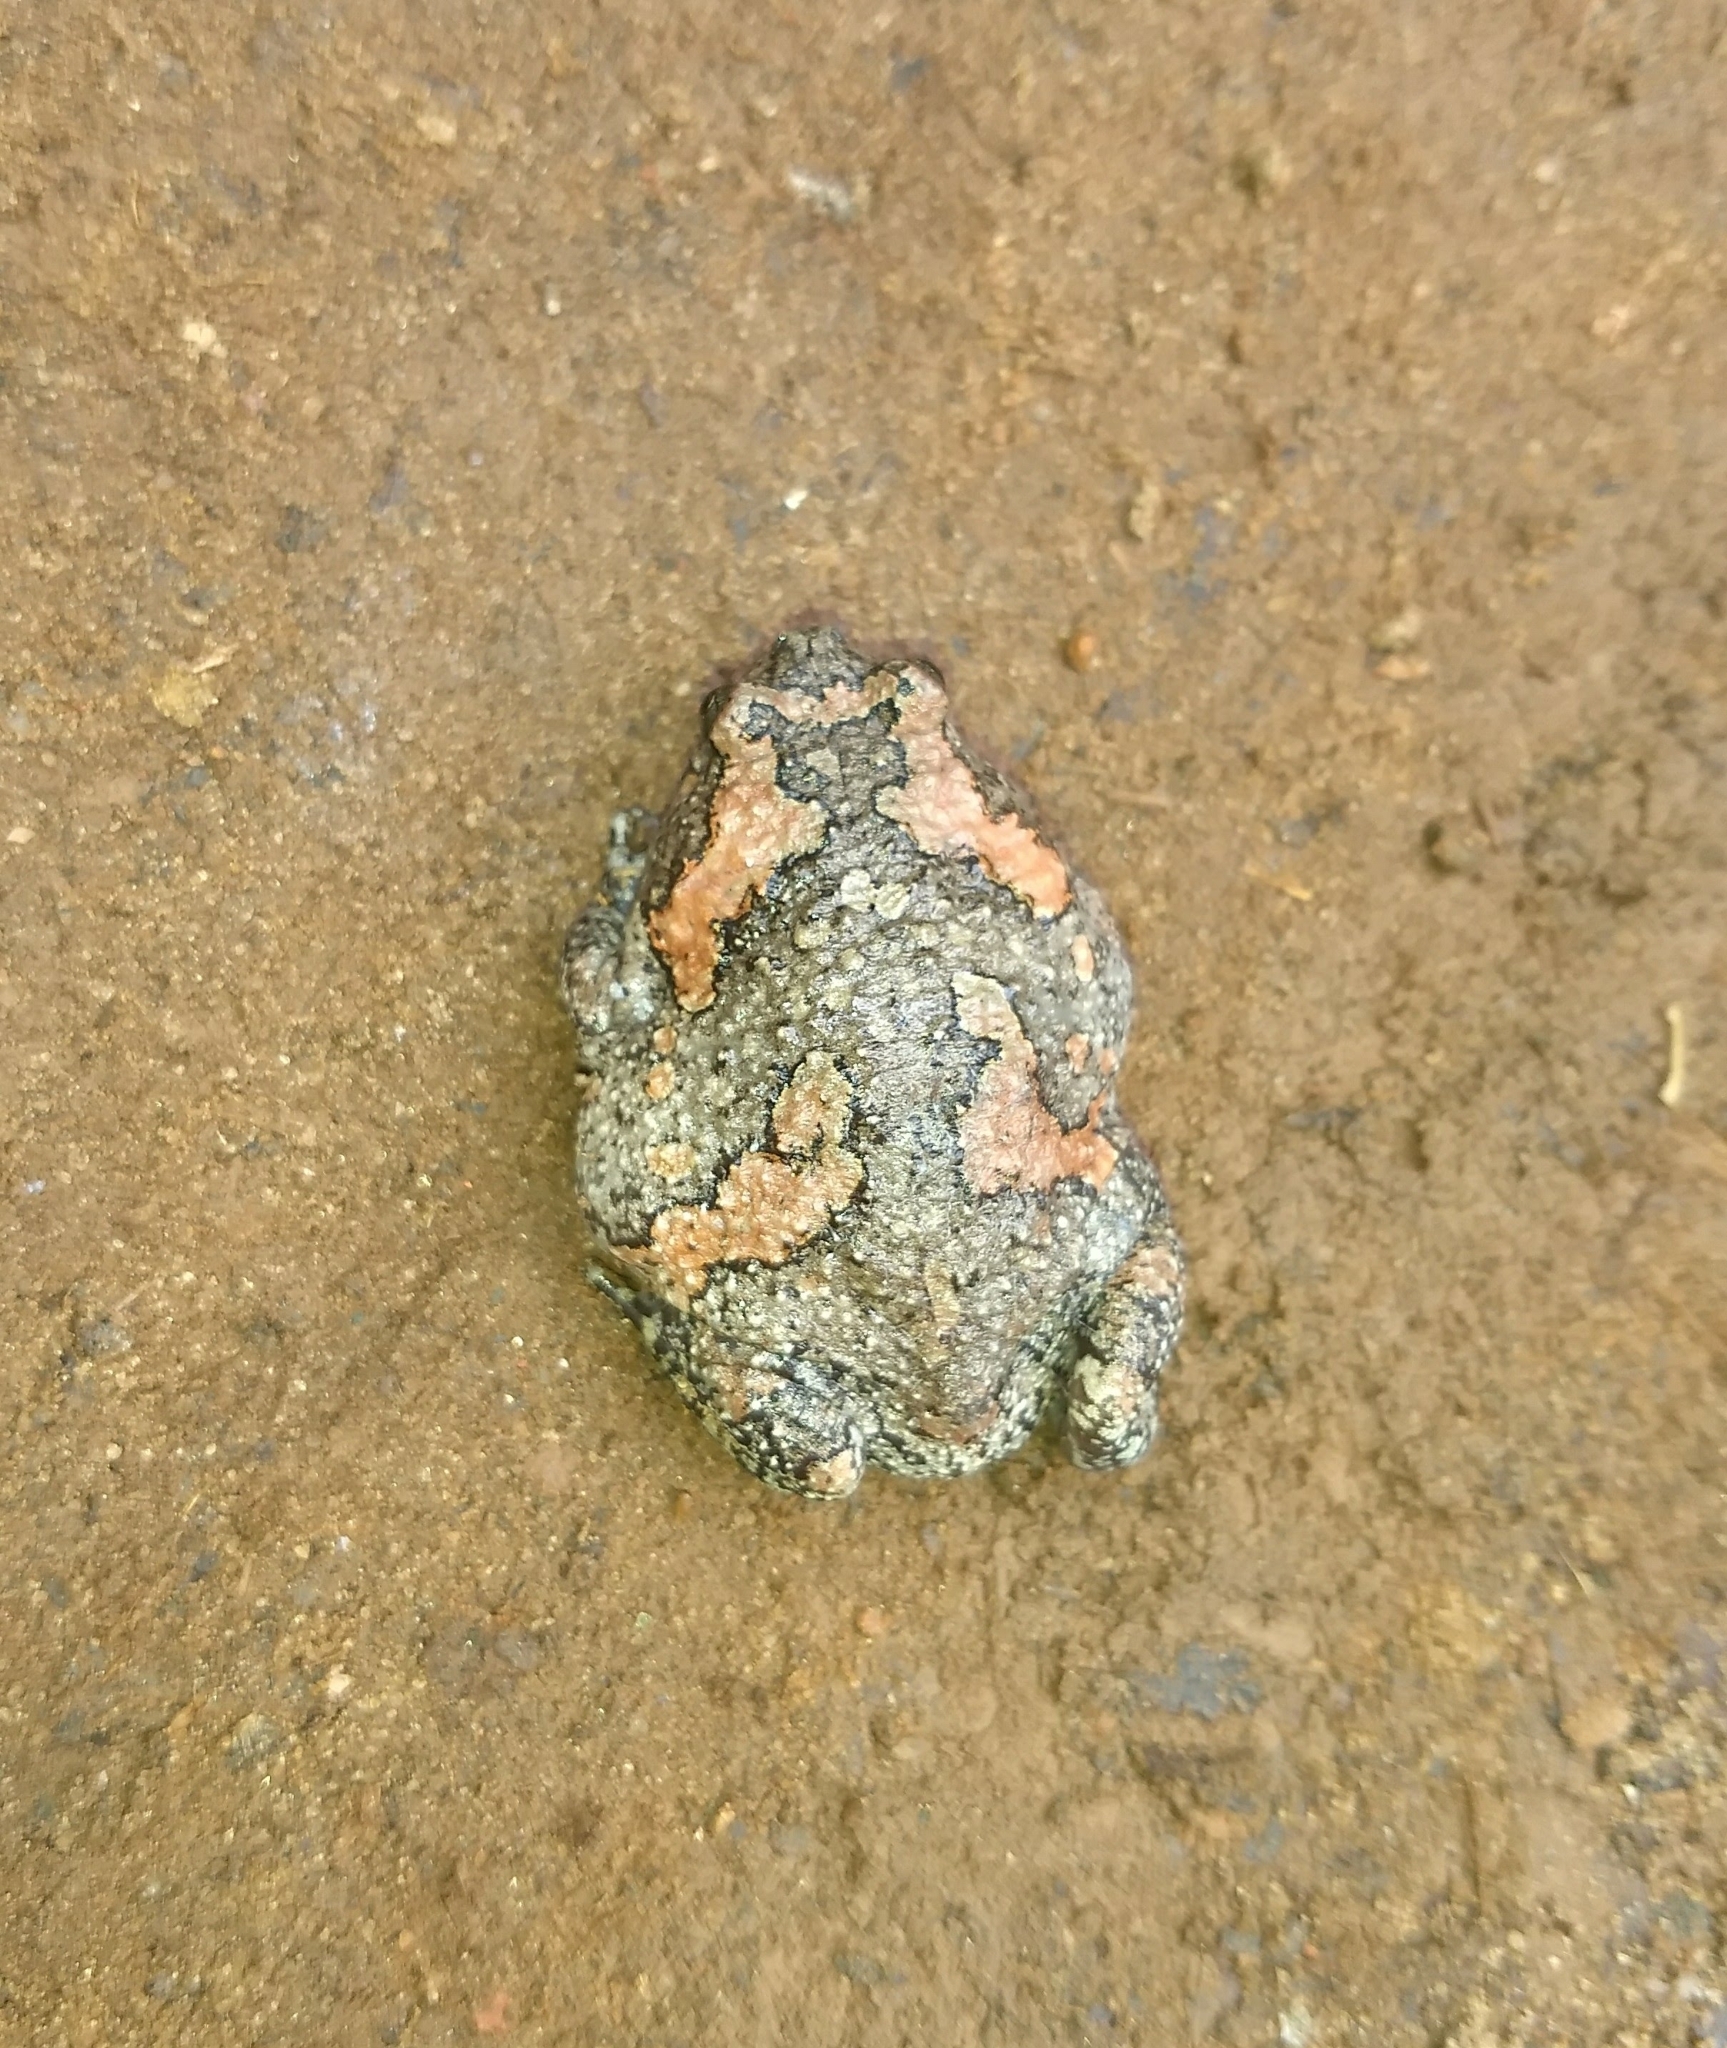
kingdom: Animalia
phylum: Chordata
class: Amphibia
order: Anura
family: Microhylidae
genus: Uperodon
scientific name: Uperodon taprobanicus
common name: Ceylon kaloula
